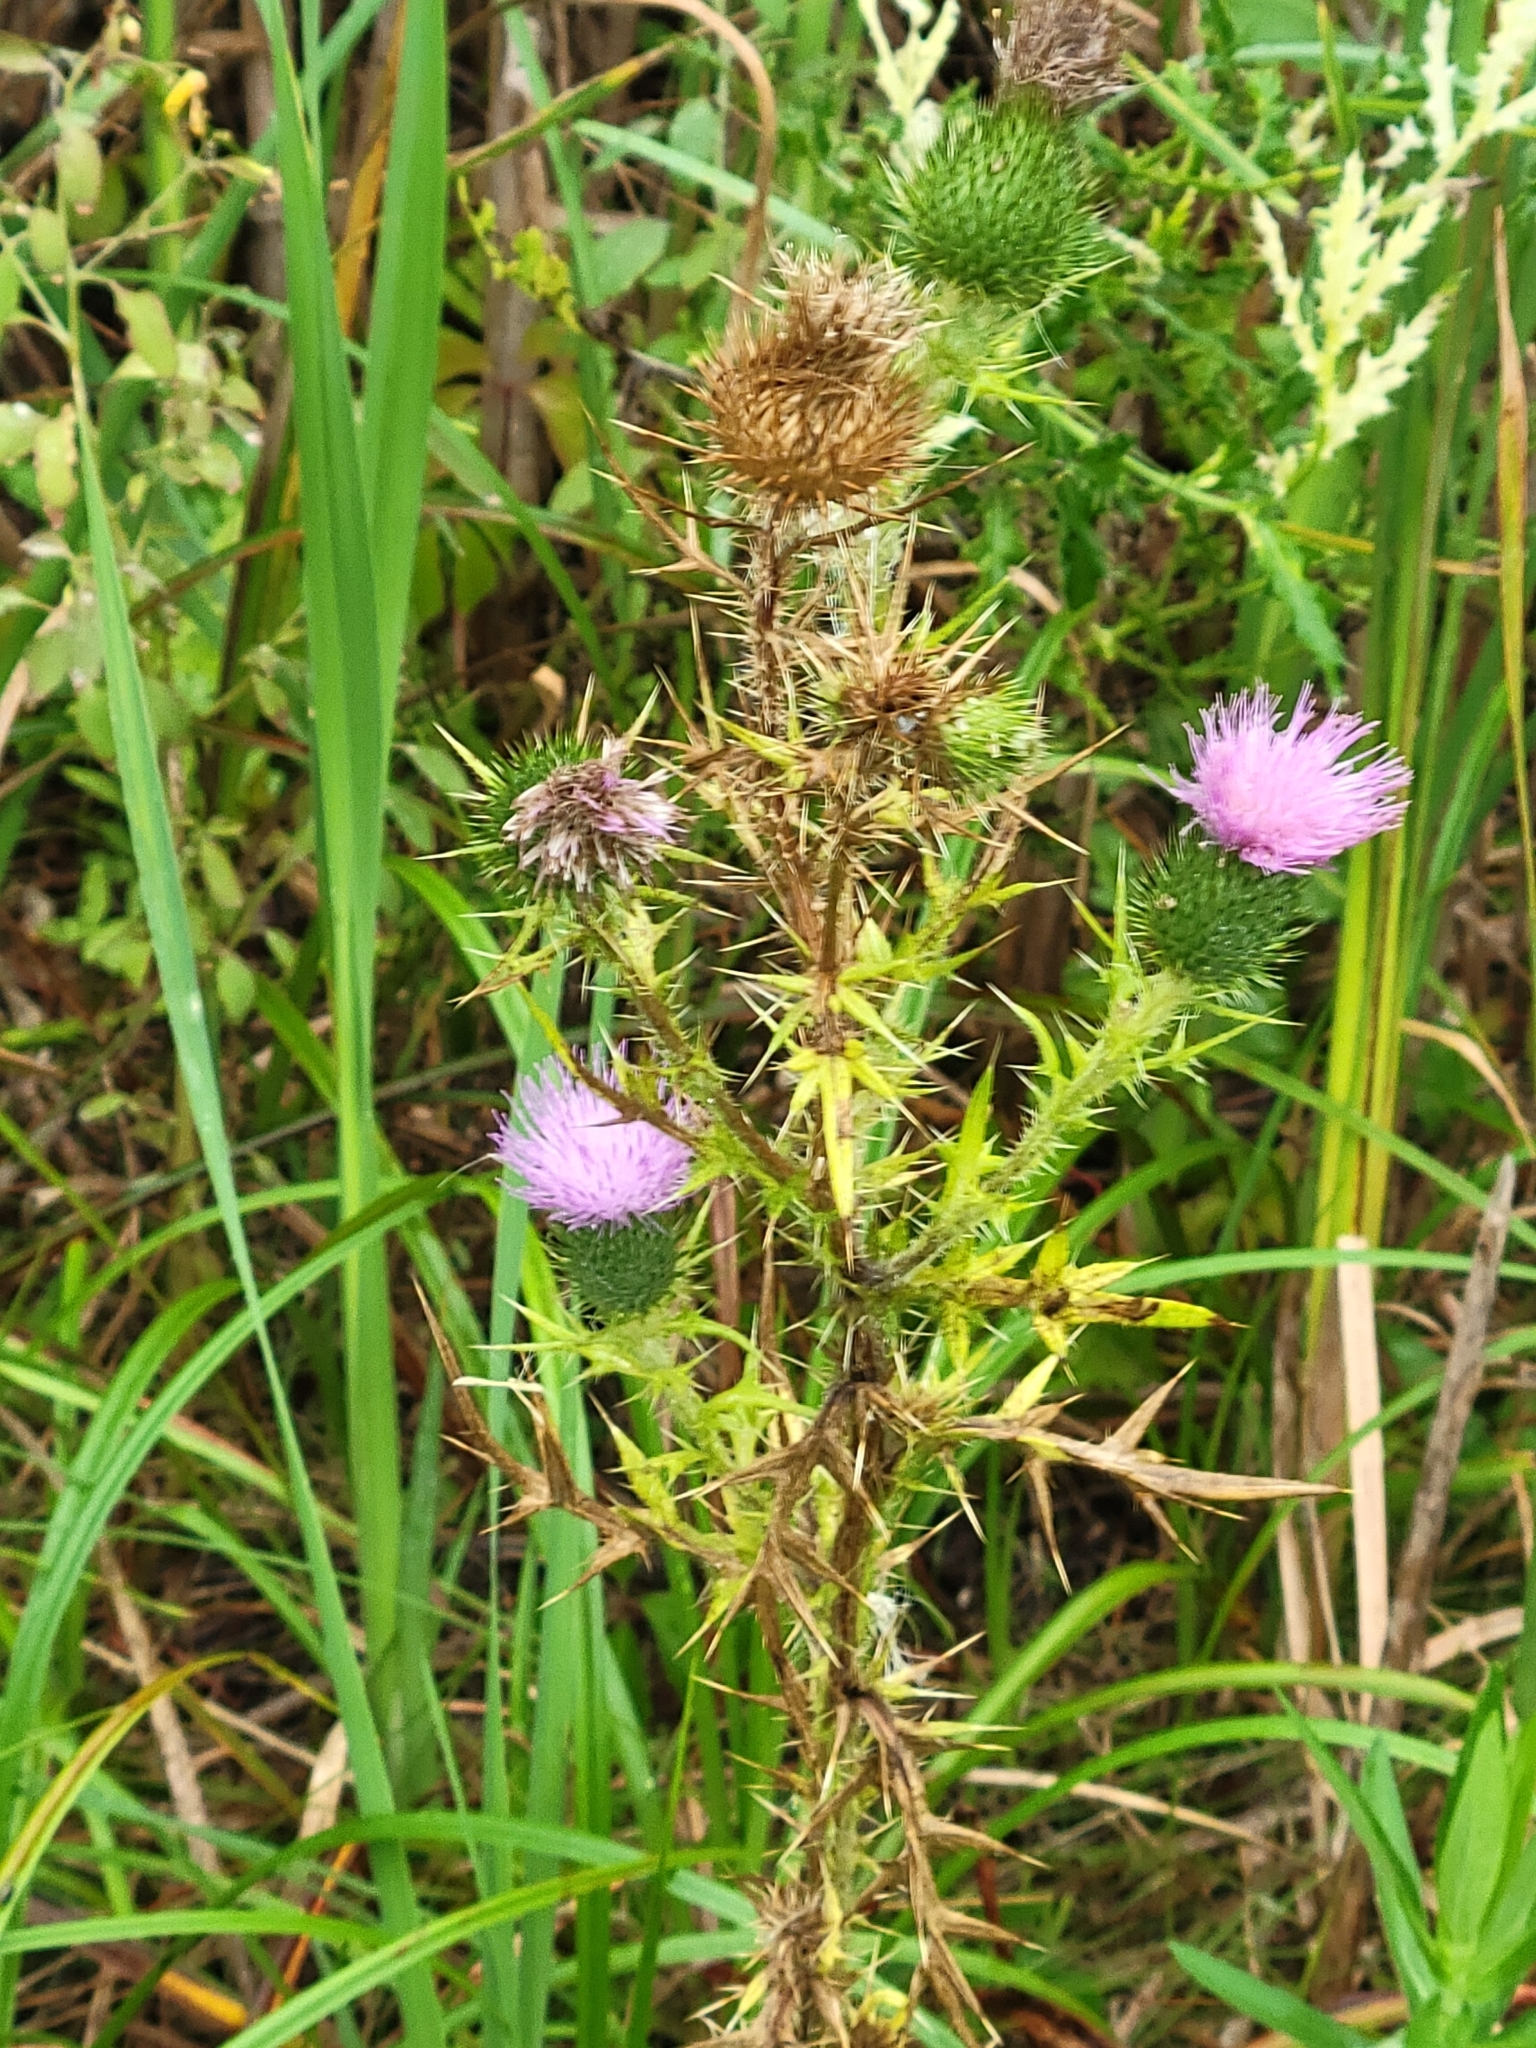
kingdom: Plantae
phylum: Tracheophyta
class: Magnoliopsida
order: Asterales
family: Asteraceae
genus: Cirsium
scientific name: Cirsium vulgare
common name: Bull thistle
